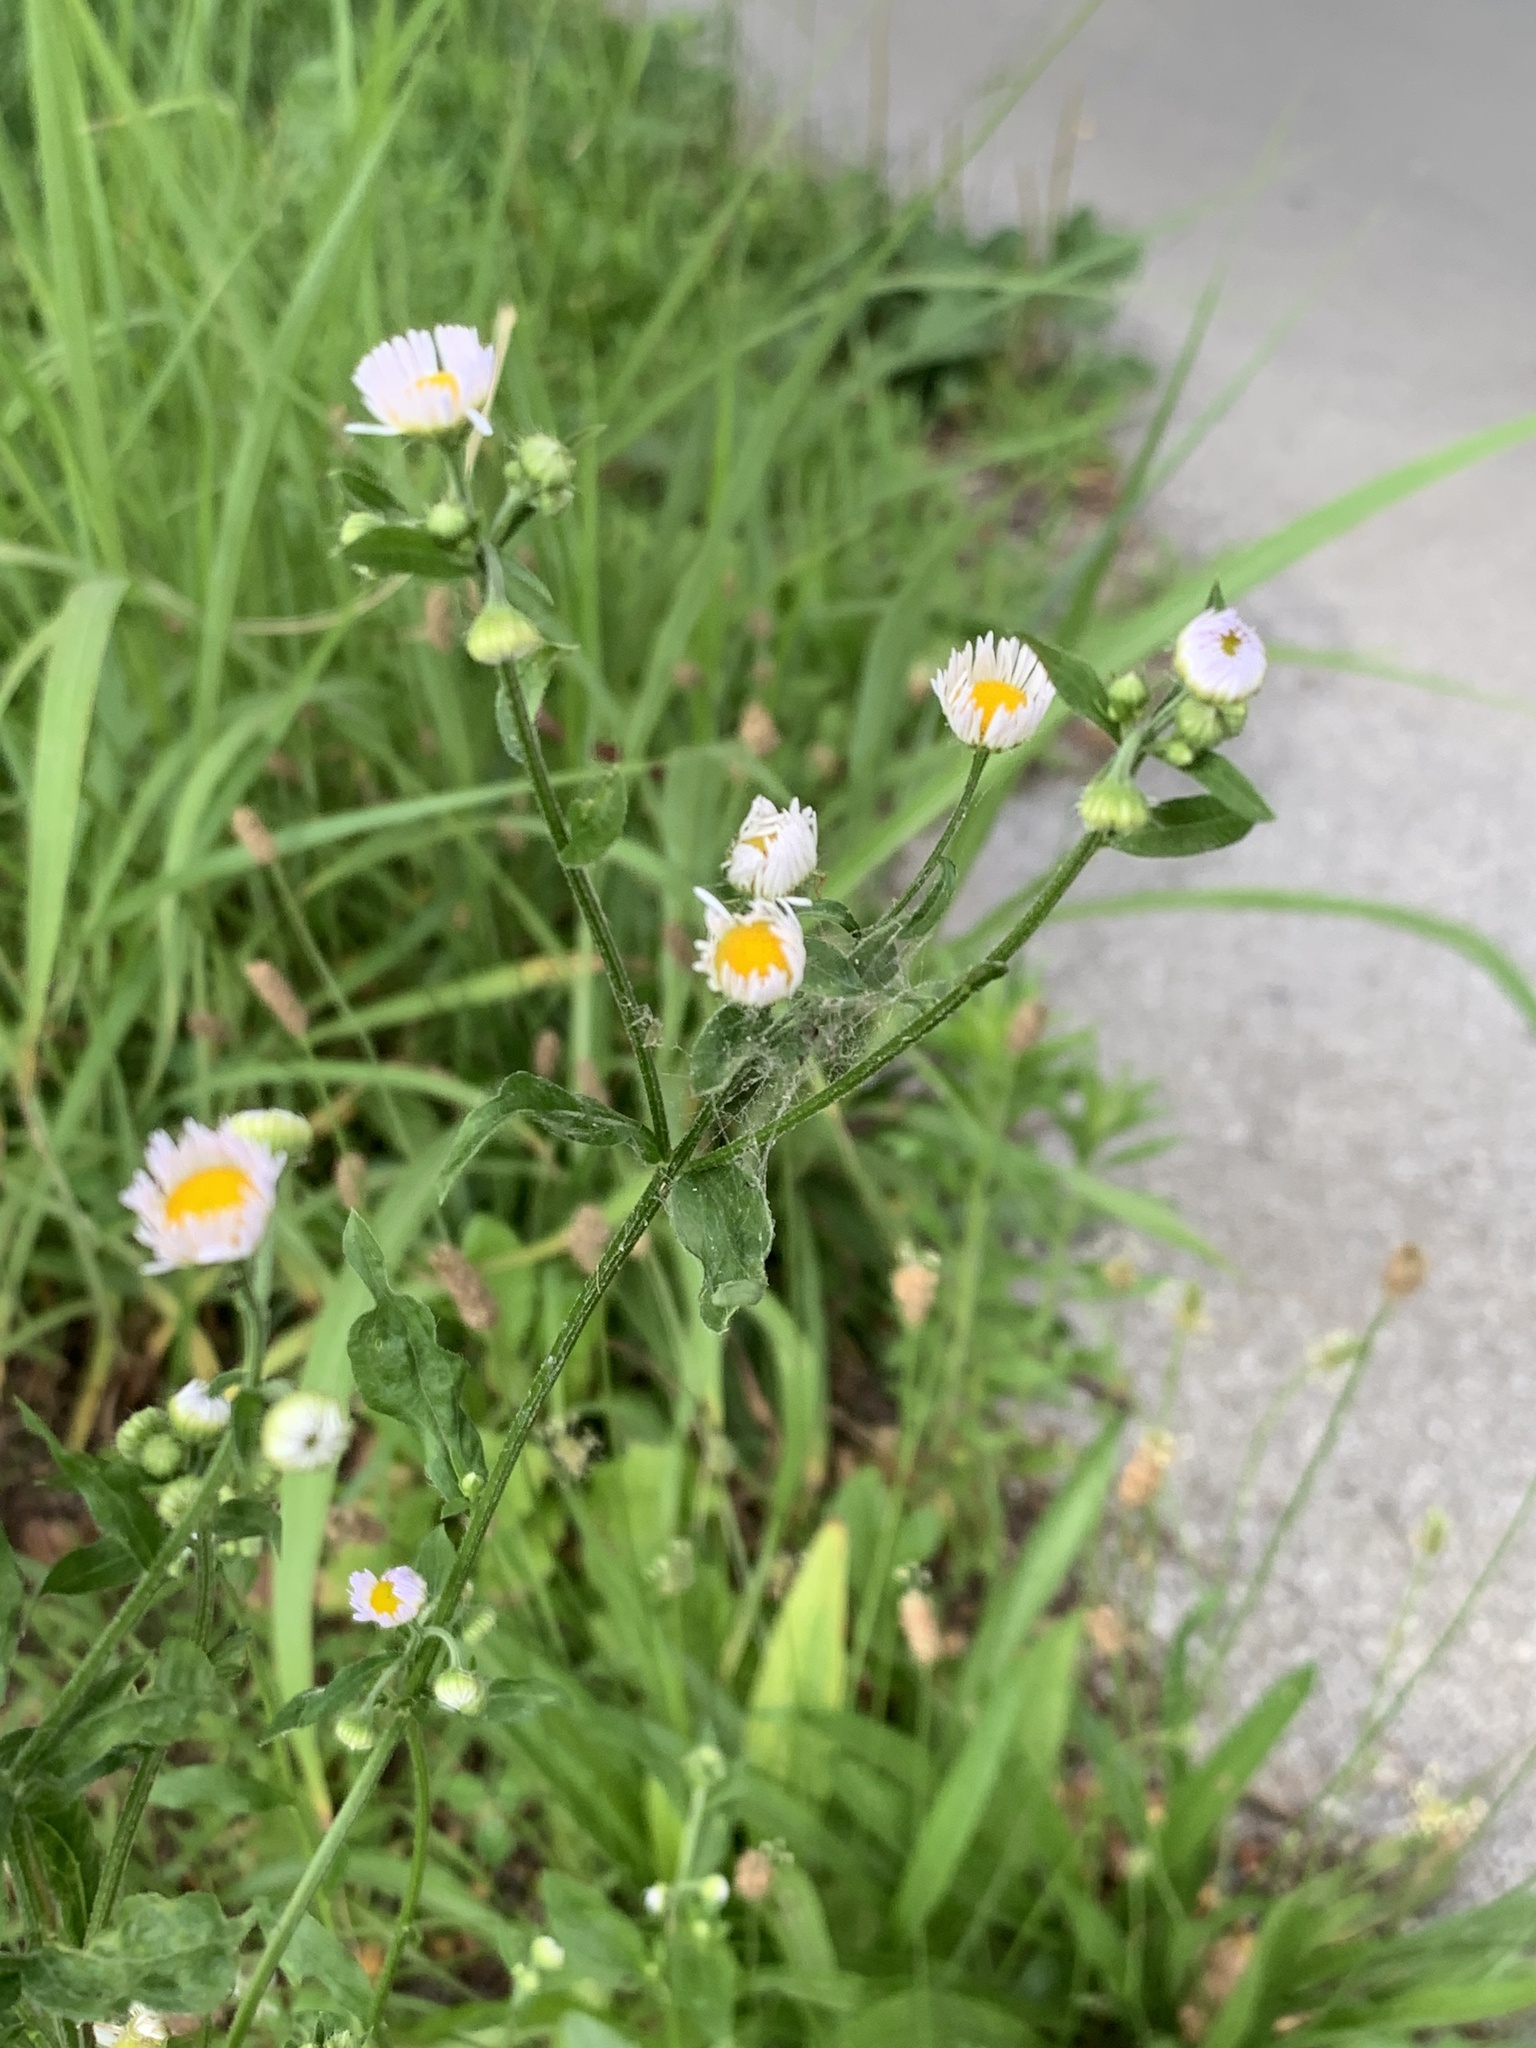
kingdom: Plantae
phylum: Tracheophyta
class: Magnoliopsida
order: Asterales
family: Asteraceae
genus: Erigeron
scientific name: Erigeron annuus
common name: Tall fleabane
